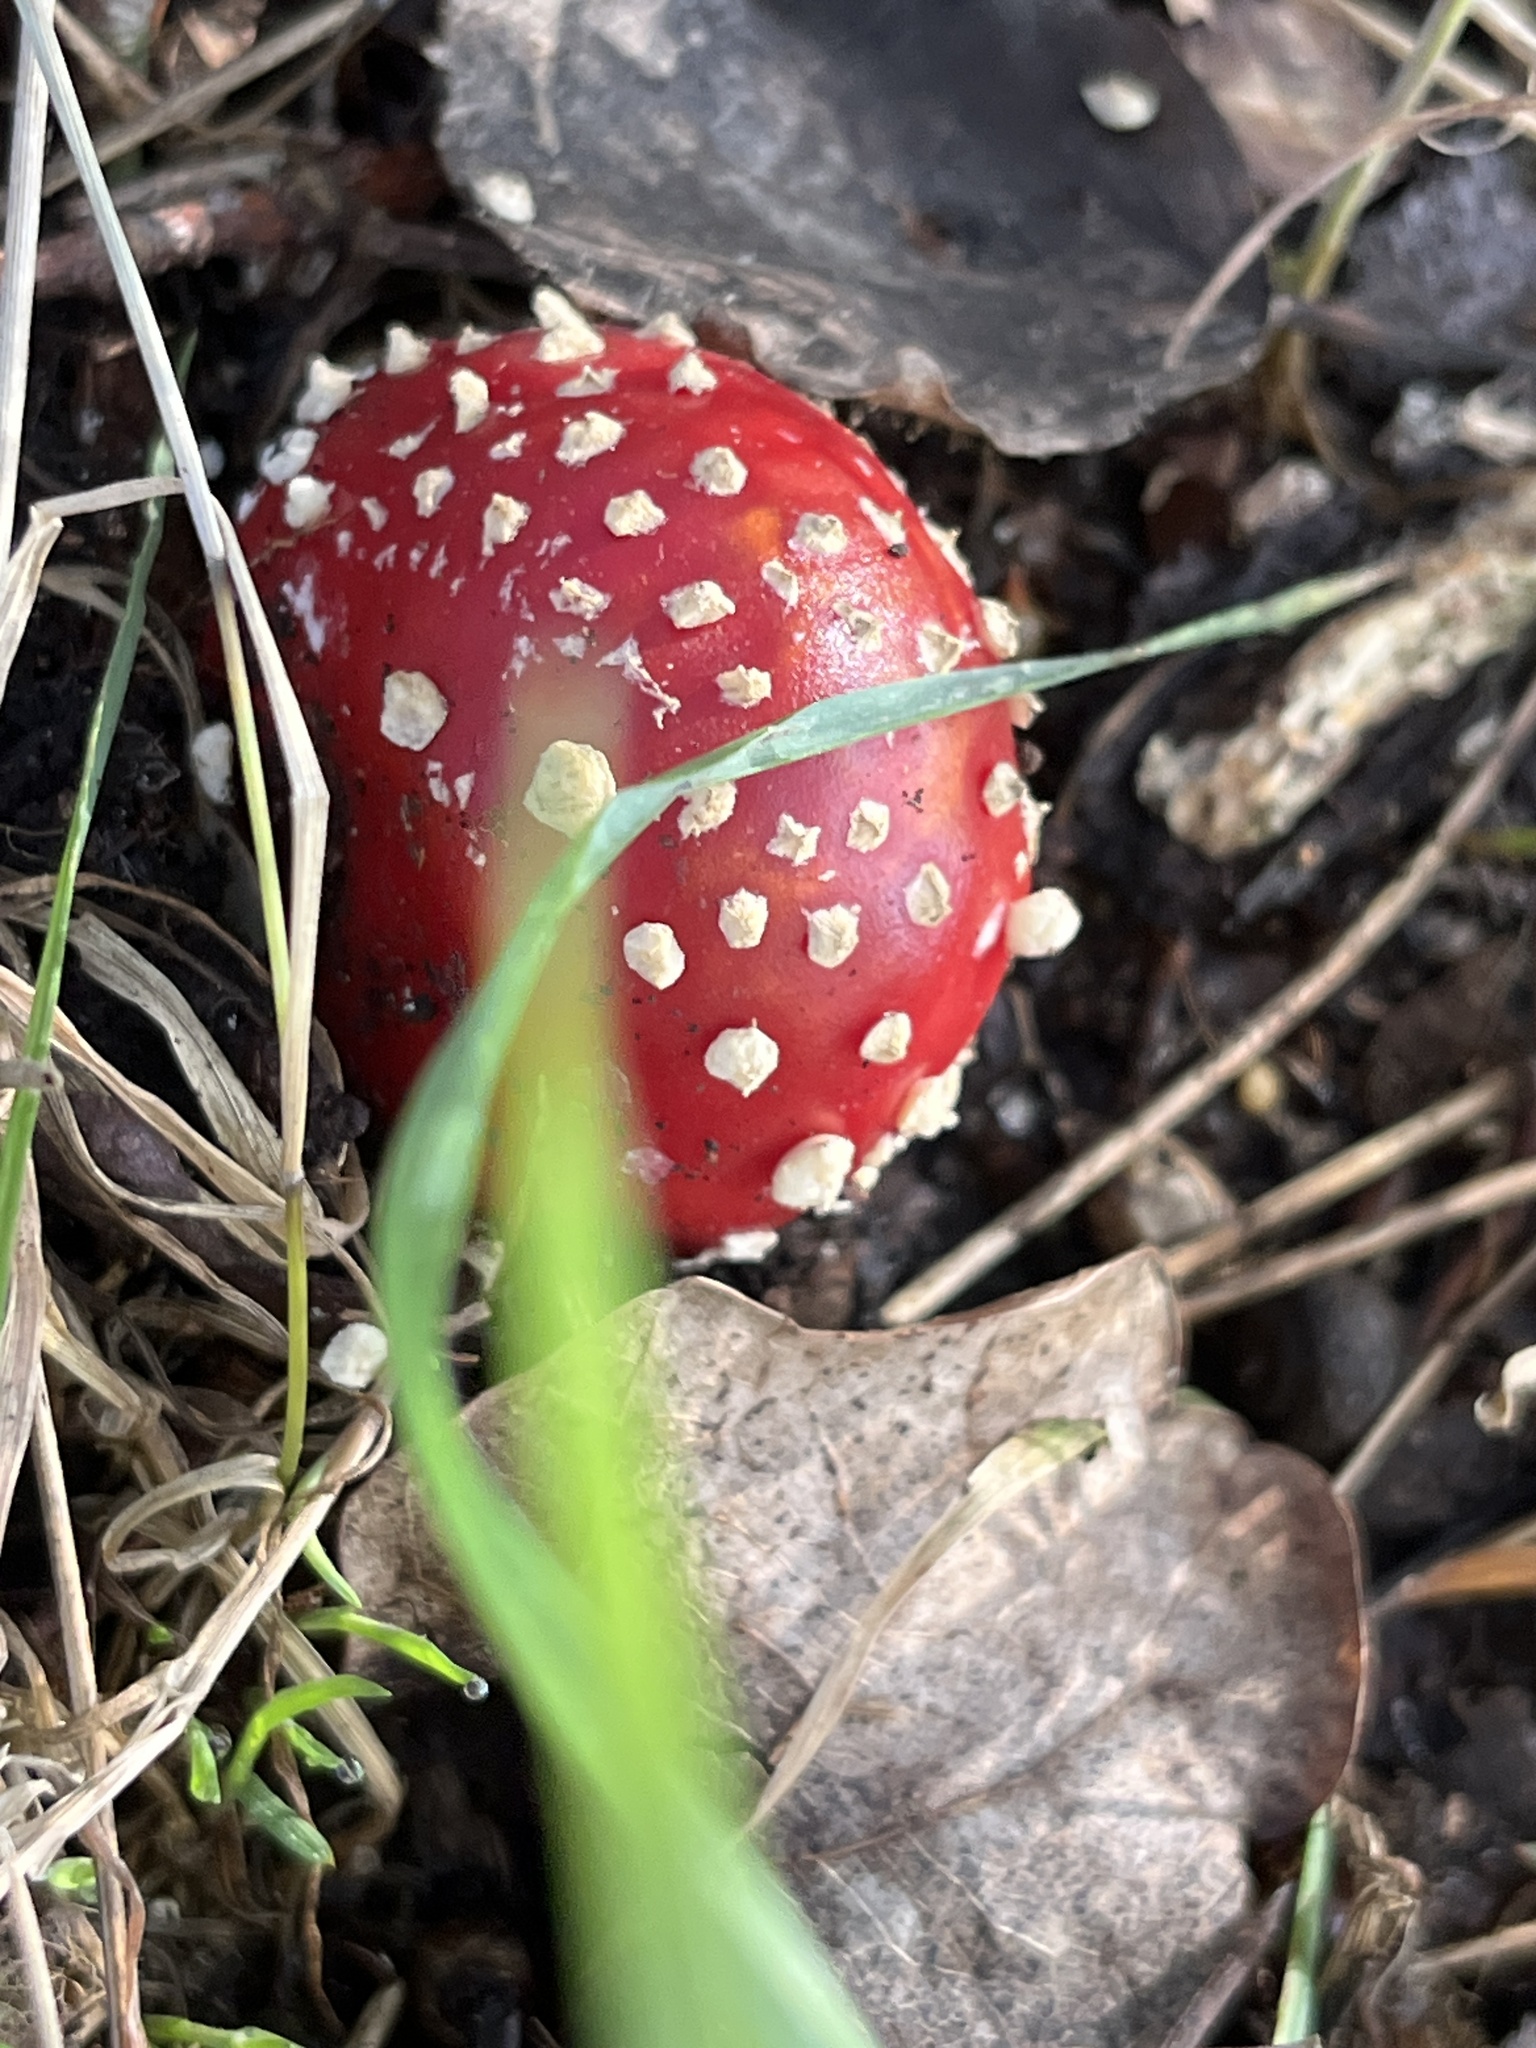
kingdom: Fungi
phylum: Basidiomycota
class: Agaricomycetes
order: Agaricales
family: Amanitaceae
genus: Amanita
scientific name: Amanita muscaria
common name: Fly agaric
